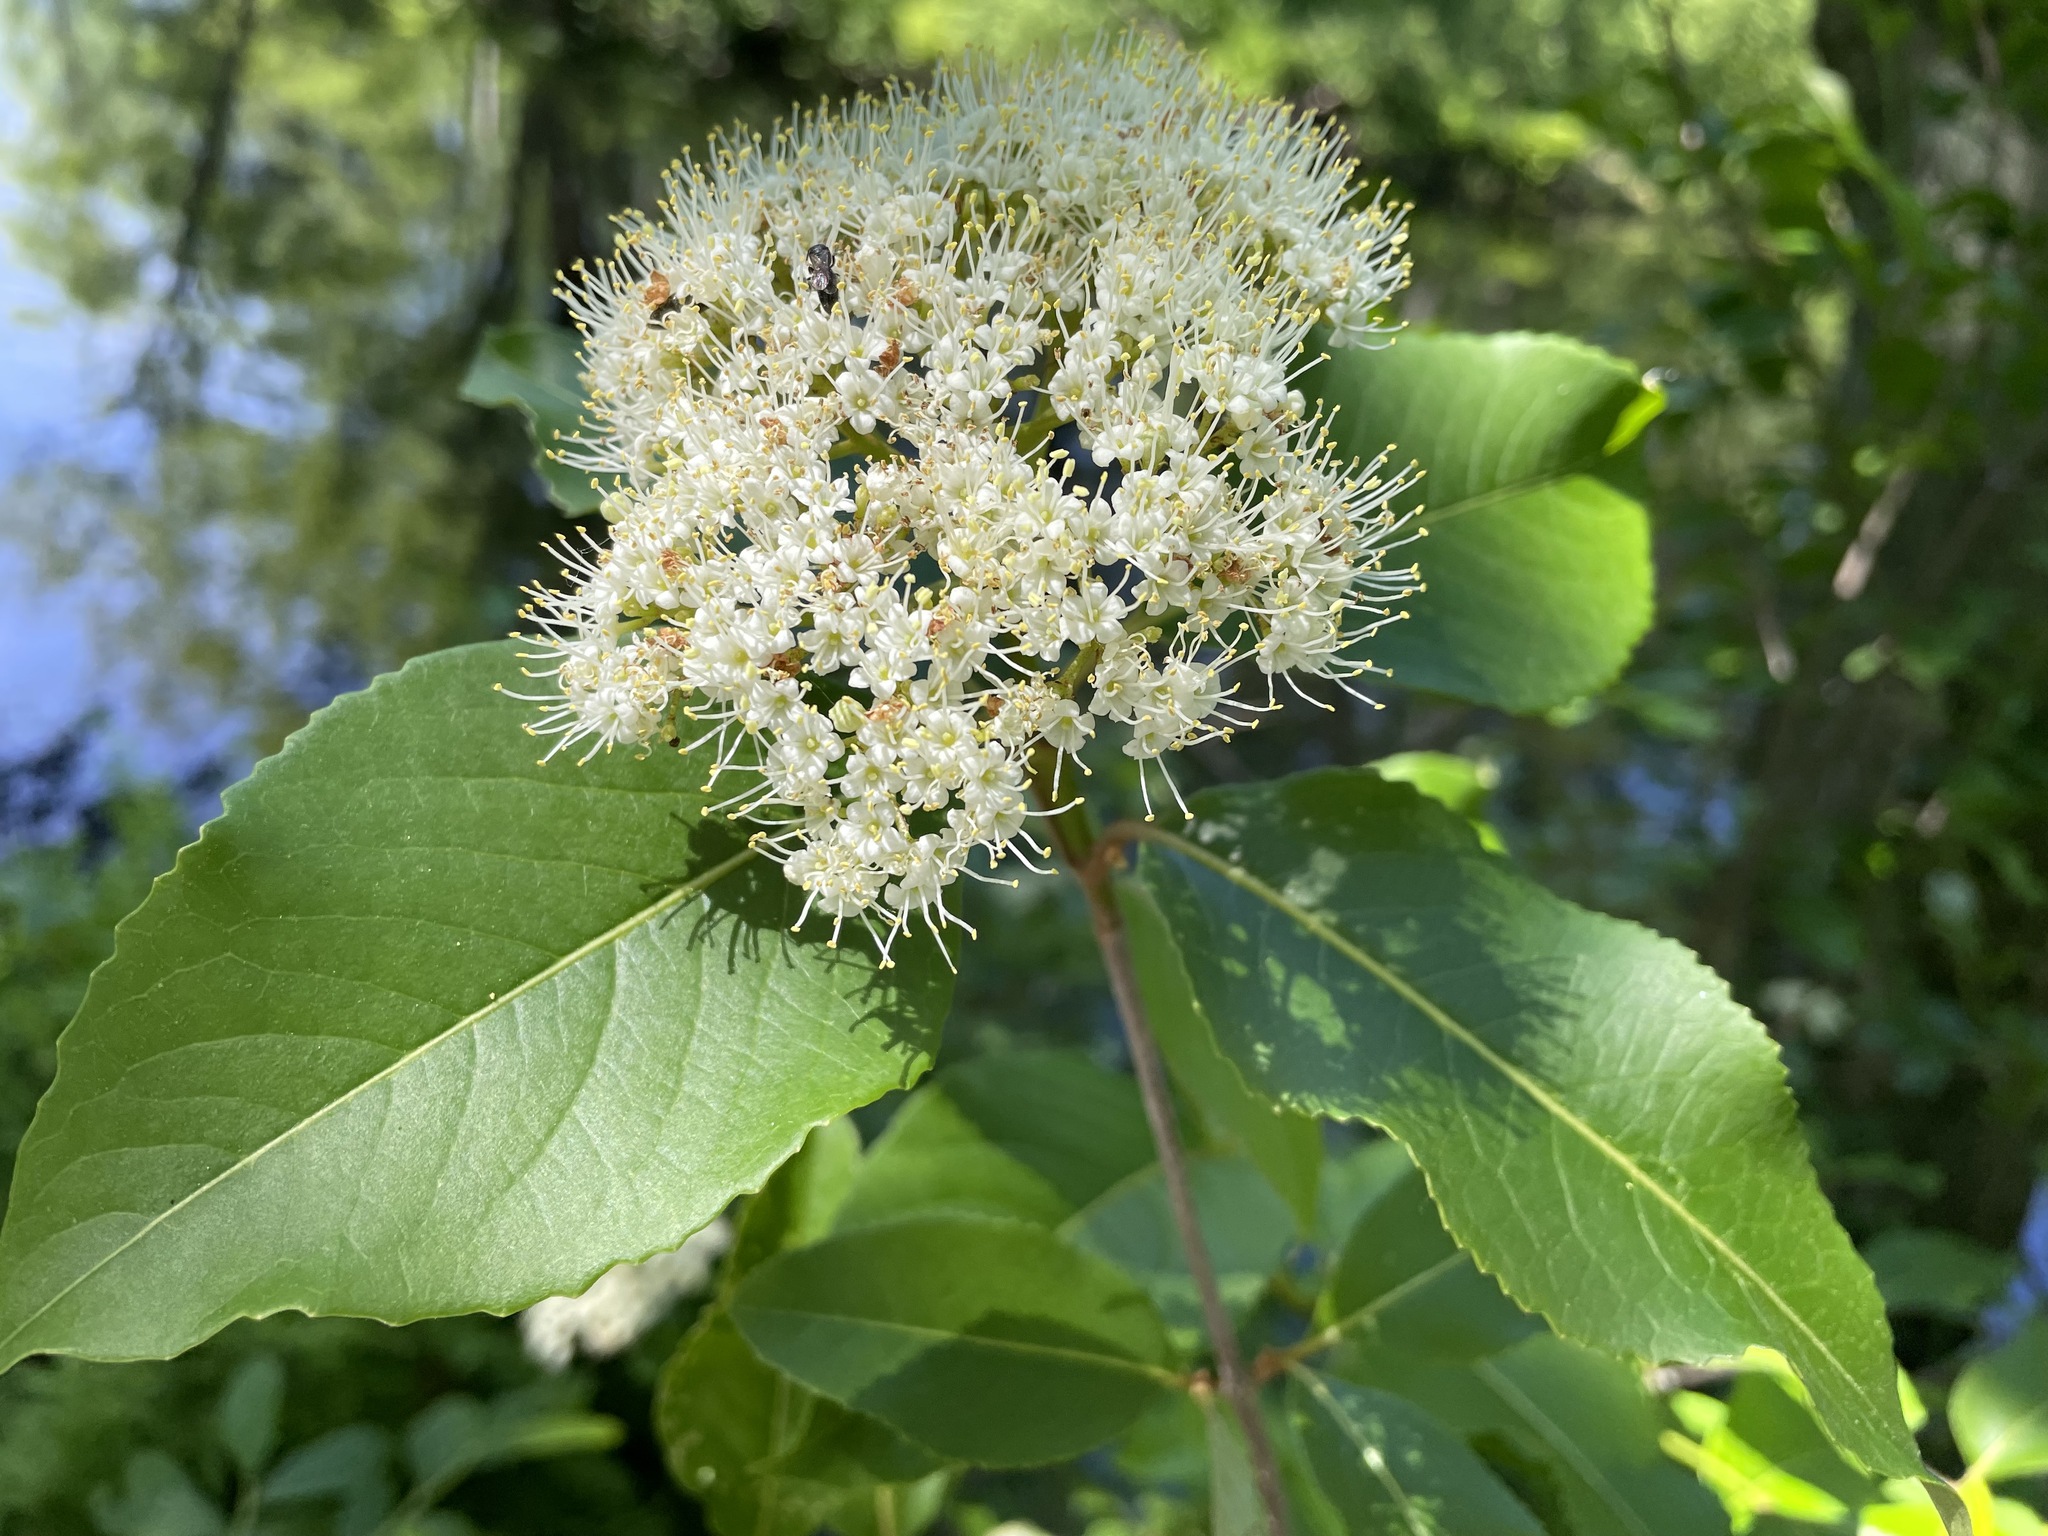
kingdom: Plantae
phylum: Tracheophyta
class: Magnoliopsida
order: Dipsacales
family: Viburnaceae
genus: Viburnum
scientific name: Viburnum cassinoides
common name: Swamp haw
